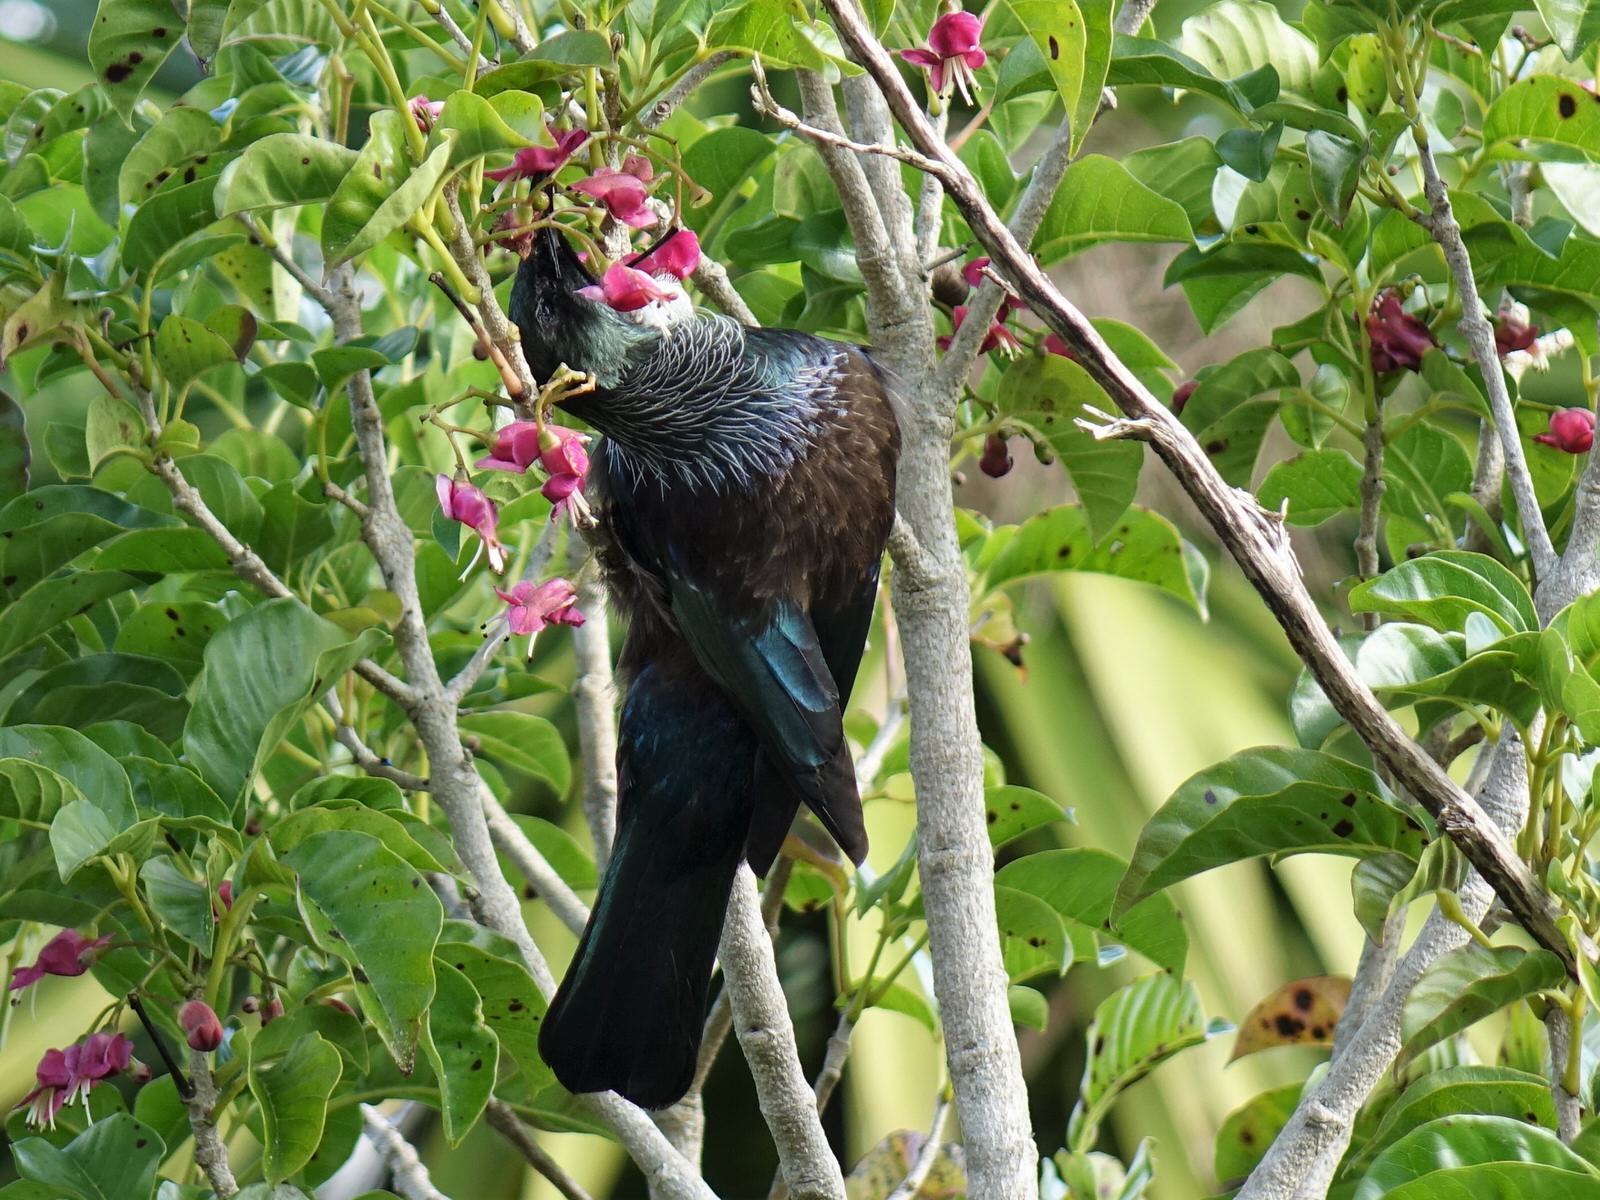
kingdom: Animalia
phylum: Chordata
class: Aves
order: Passeriformes
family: Meliphagidae
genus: Prosthemadera
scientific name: Prosthemadera novaeseelandiae
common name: Tui
